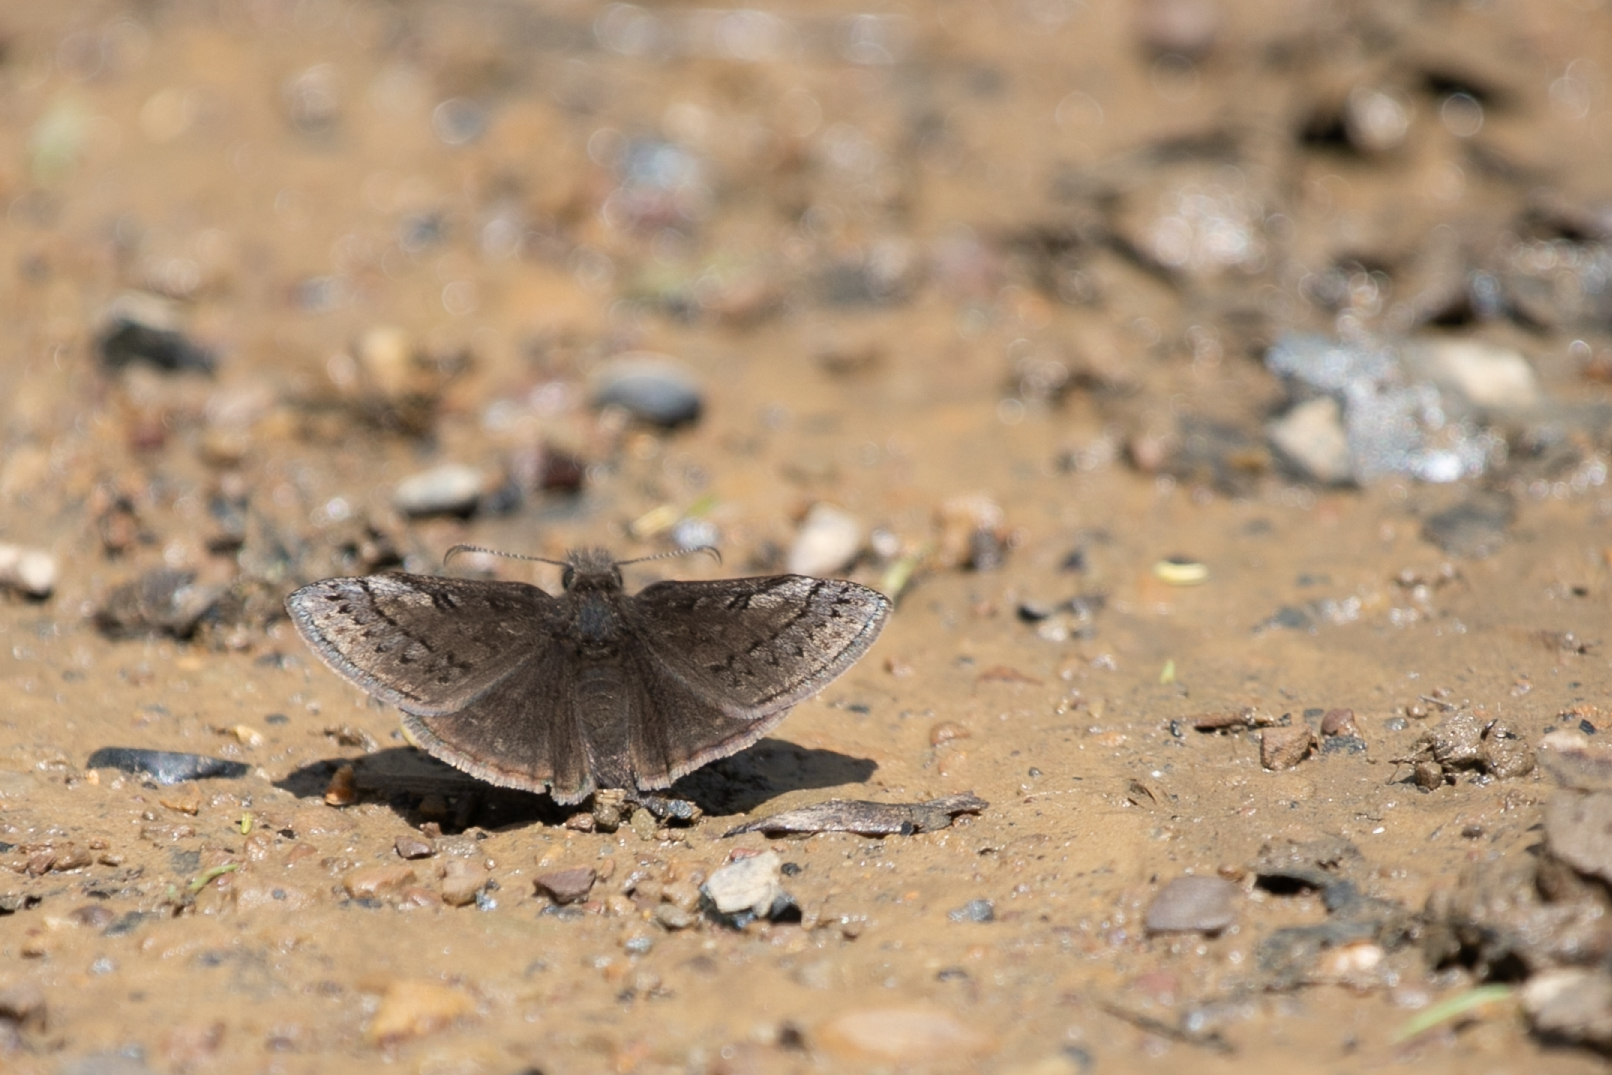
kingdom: Animalia
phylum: Arthropoda
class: Insecta
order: Lepidoptera
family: Hesperiidae
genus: Erynnis
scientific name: Erynnis brizo
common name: Sleepy duskywing
